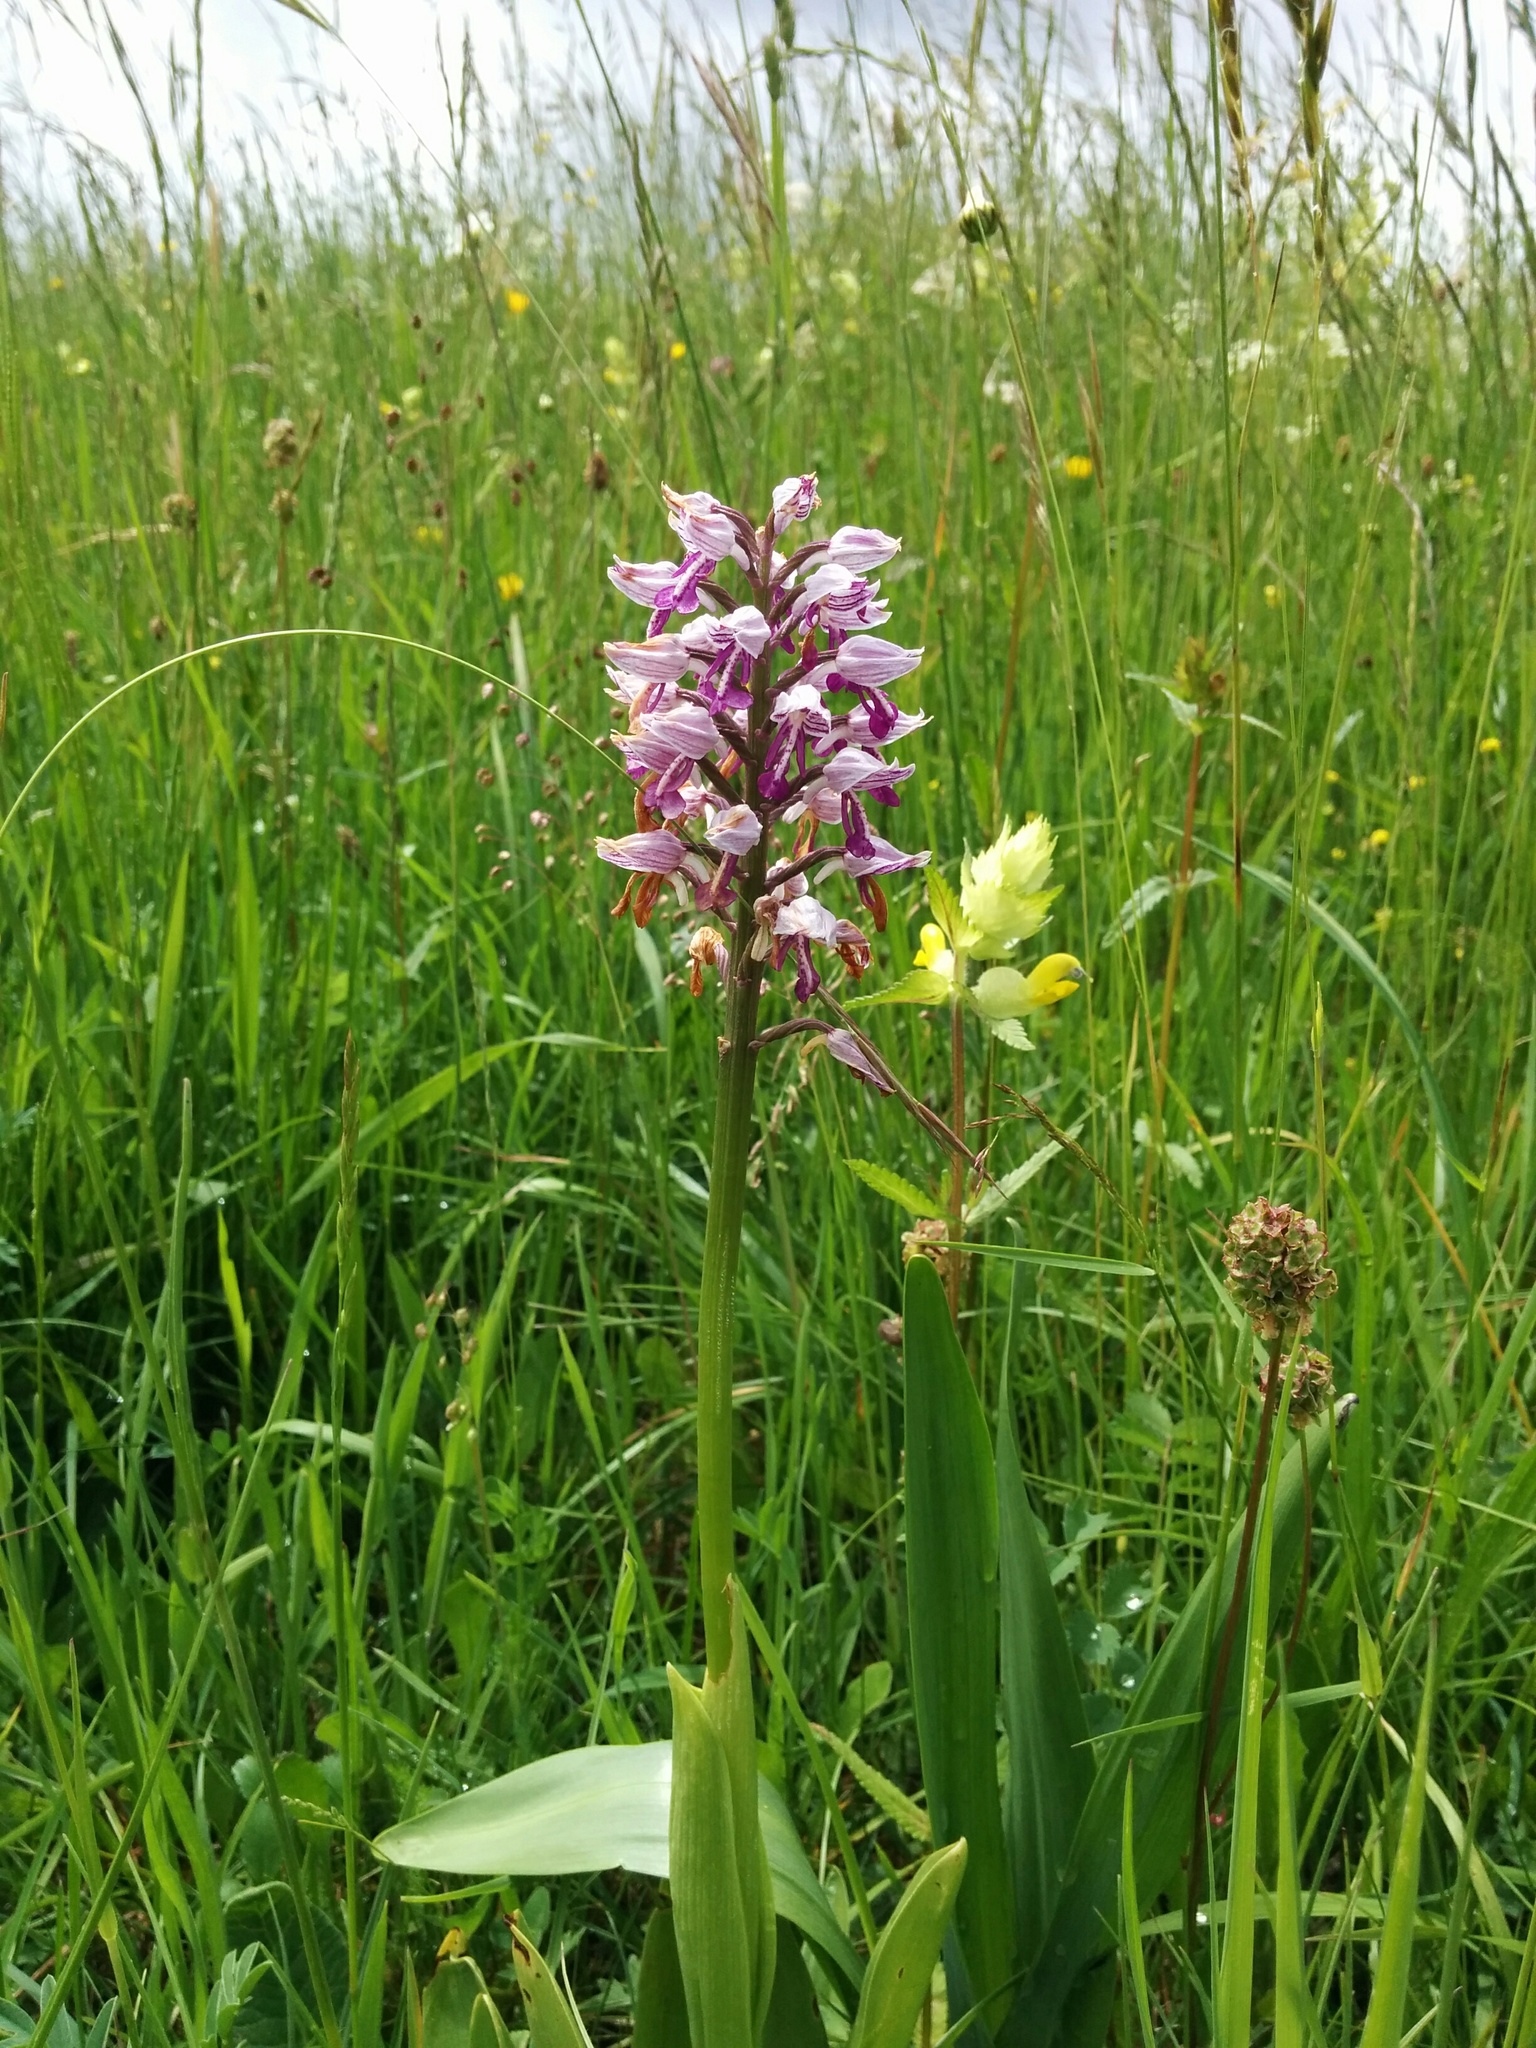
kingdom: Plantae
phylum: Tracheophyta
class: Liliopsida
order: Asparagales
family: Orchidaceae
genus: Orchis
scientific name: Orchis militaris
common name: Military orchid
